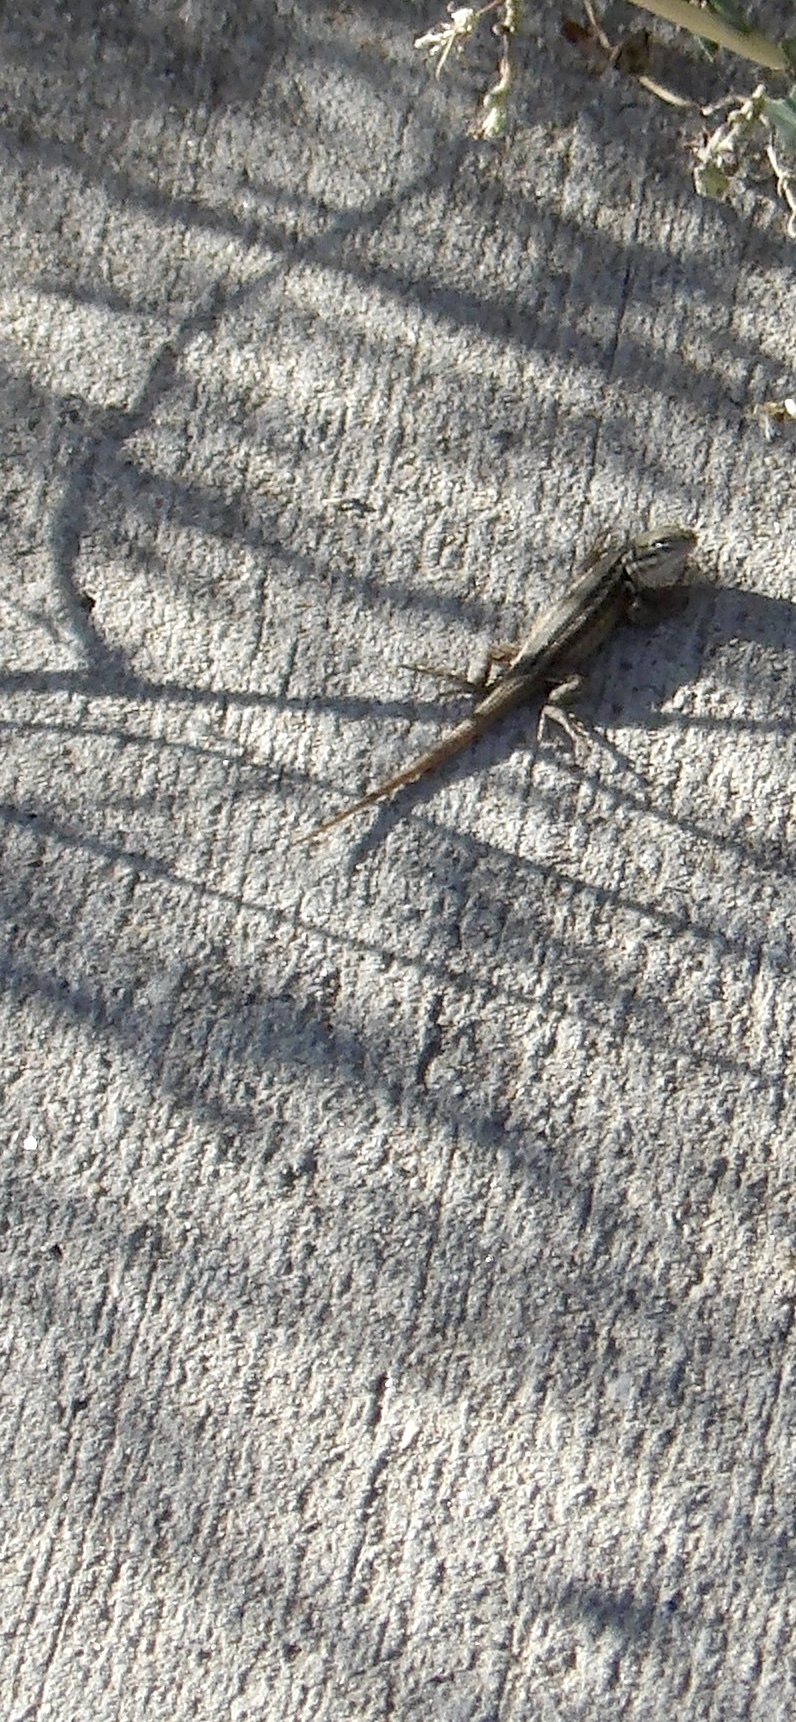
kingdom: Animalia
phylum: Chordata
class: Squamata
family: Phrynosomatidae
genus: Sceloporus
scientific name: Sceloporus graciosus
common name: Sagebrush lizard
